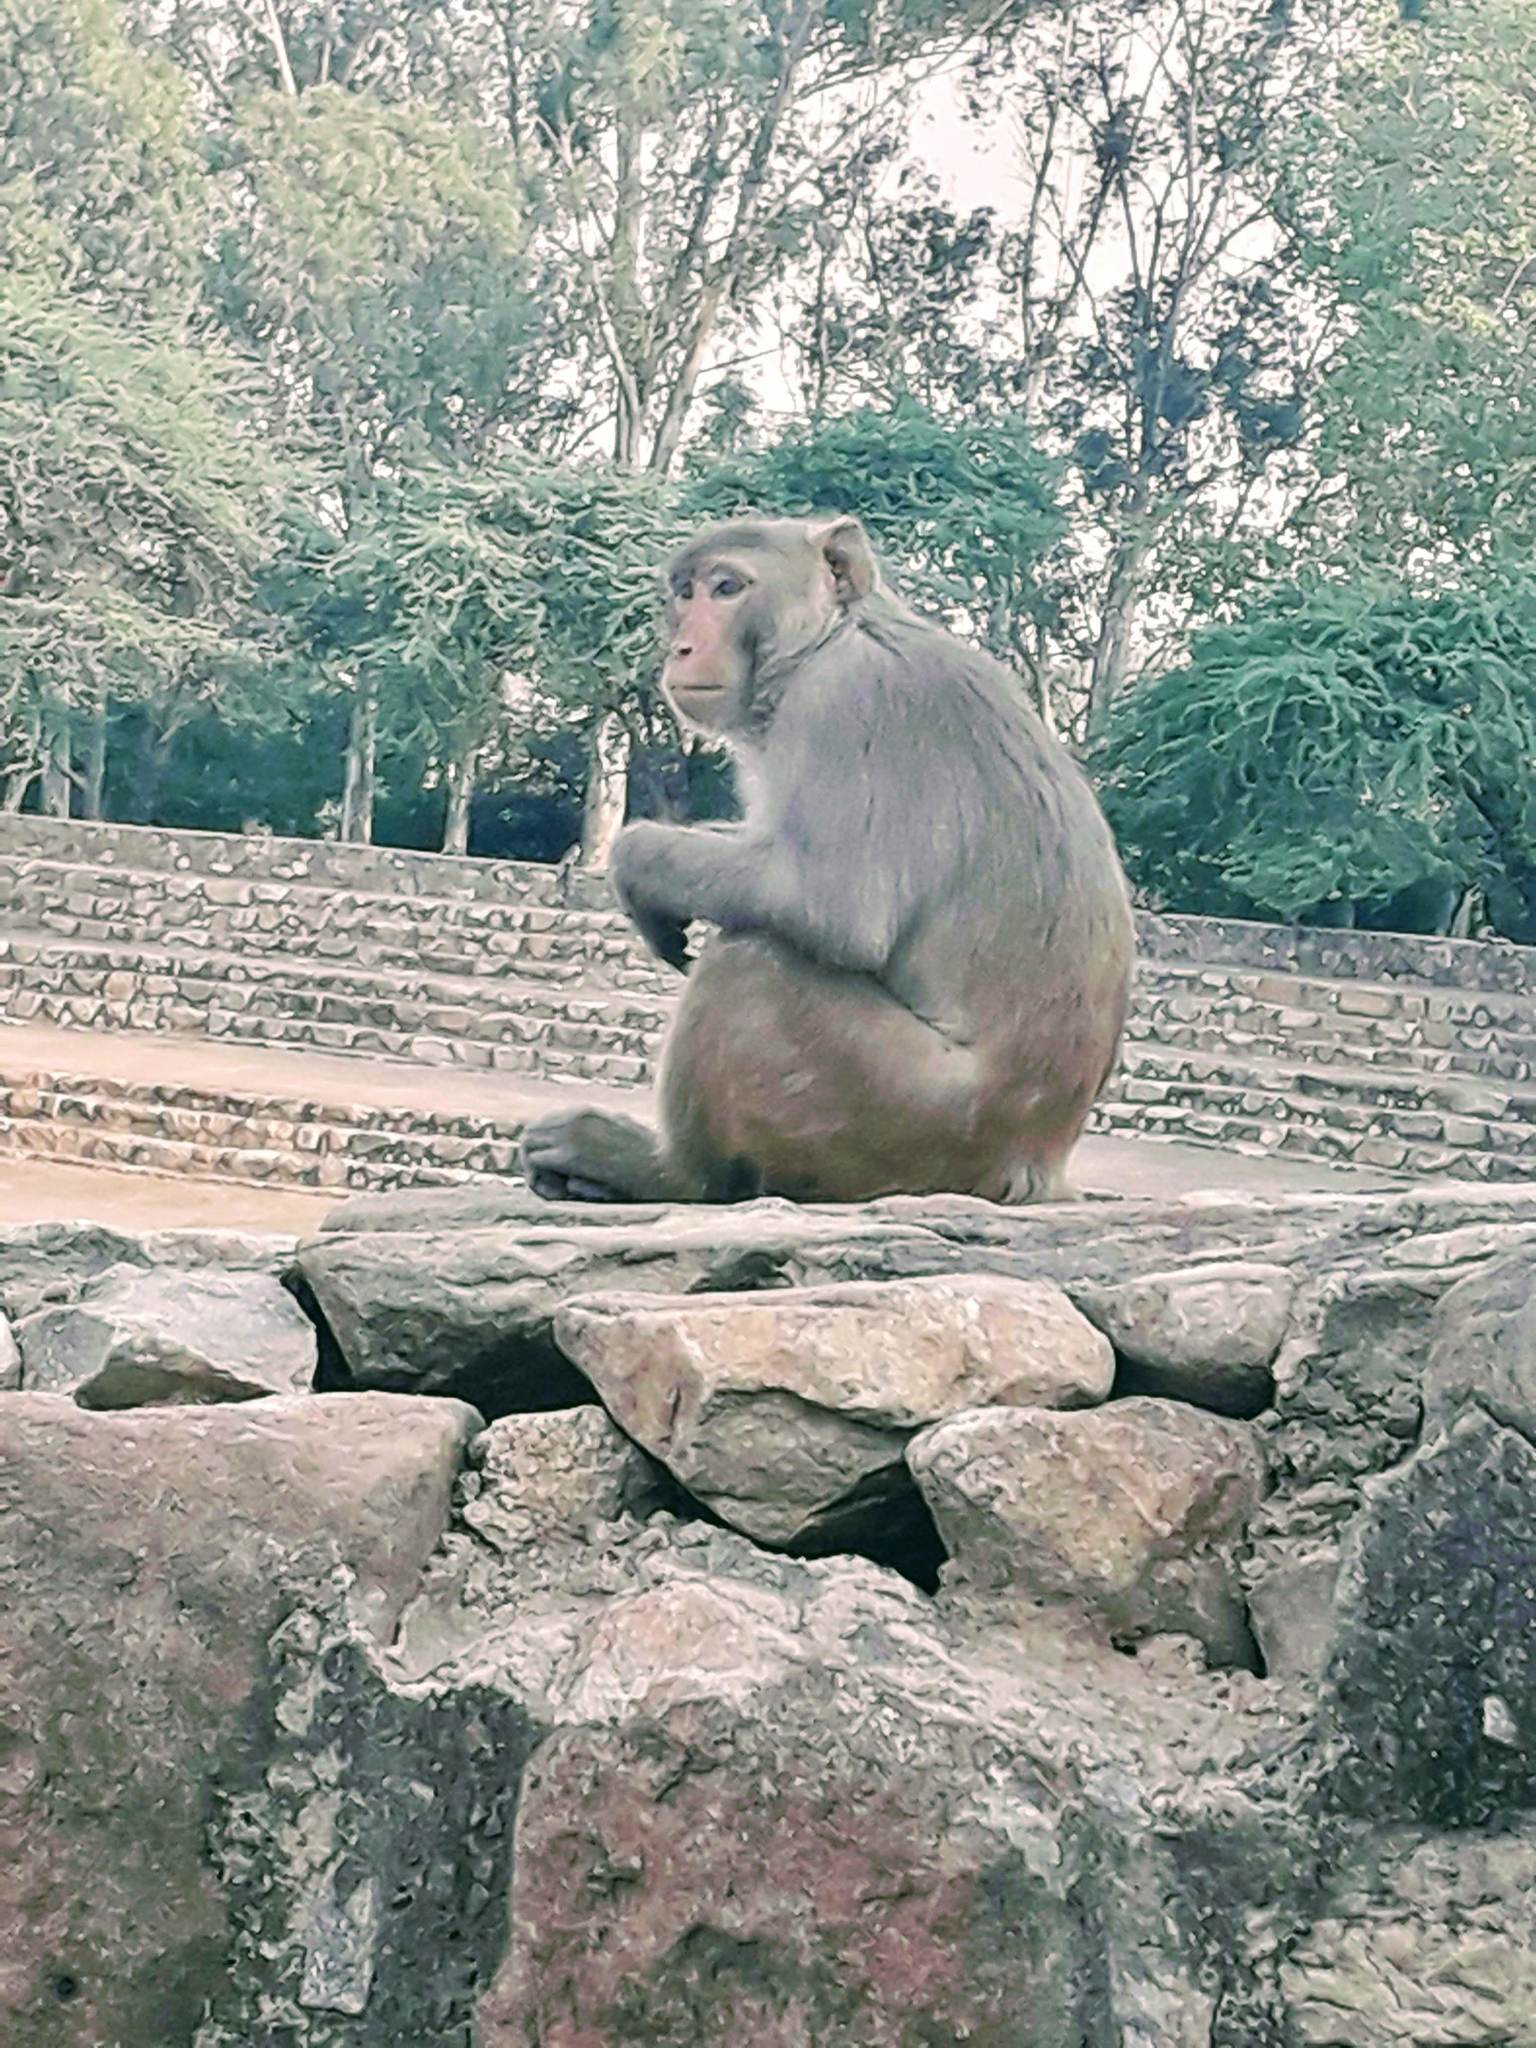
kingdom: Animalia
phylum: Chordata
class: Mammalia
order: Primates
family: Cercopithecidae
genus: Macaca
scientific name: Macaca mulatta
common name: Rhesus monkey
